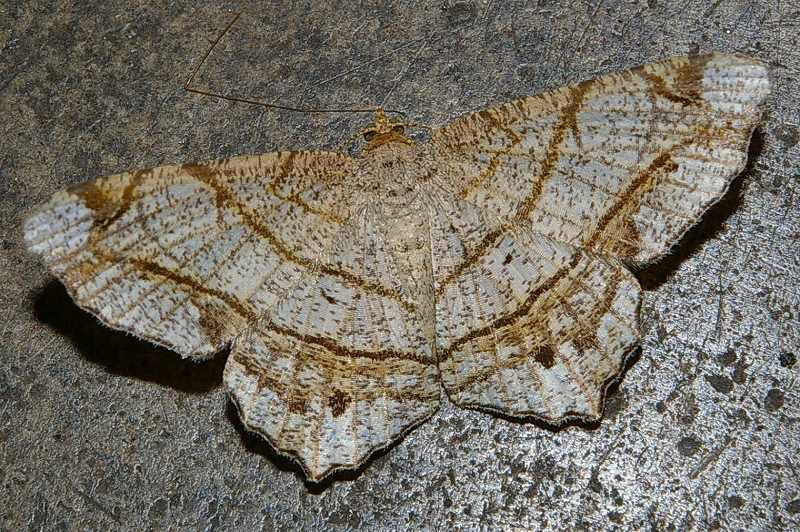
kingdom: Animalia
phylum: Arthropoda
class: Insecta
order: Lepidoptera
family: Geometridae
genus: Chiasmia
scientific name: Chiasmia defixaria
